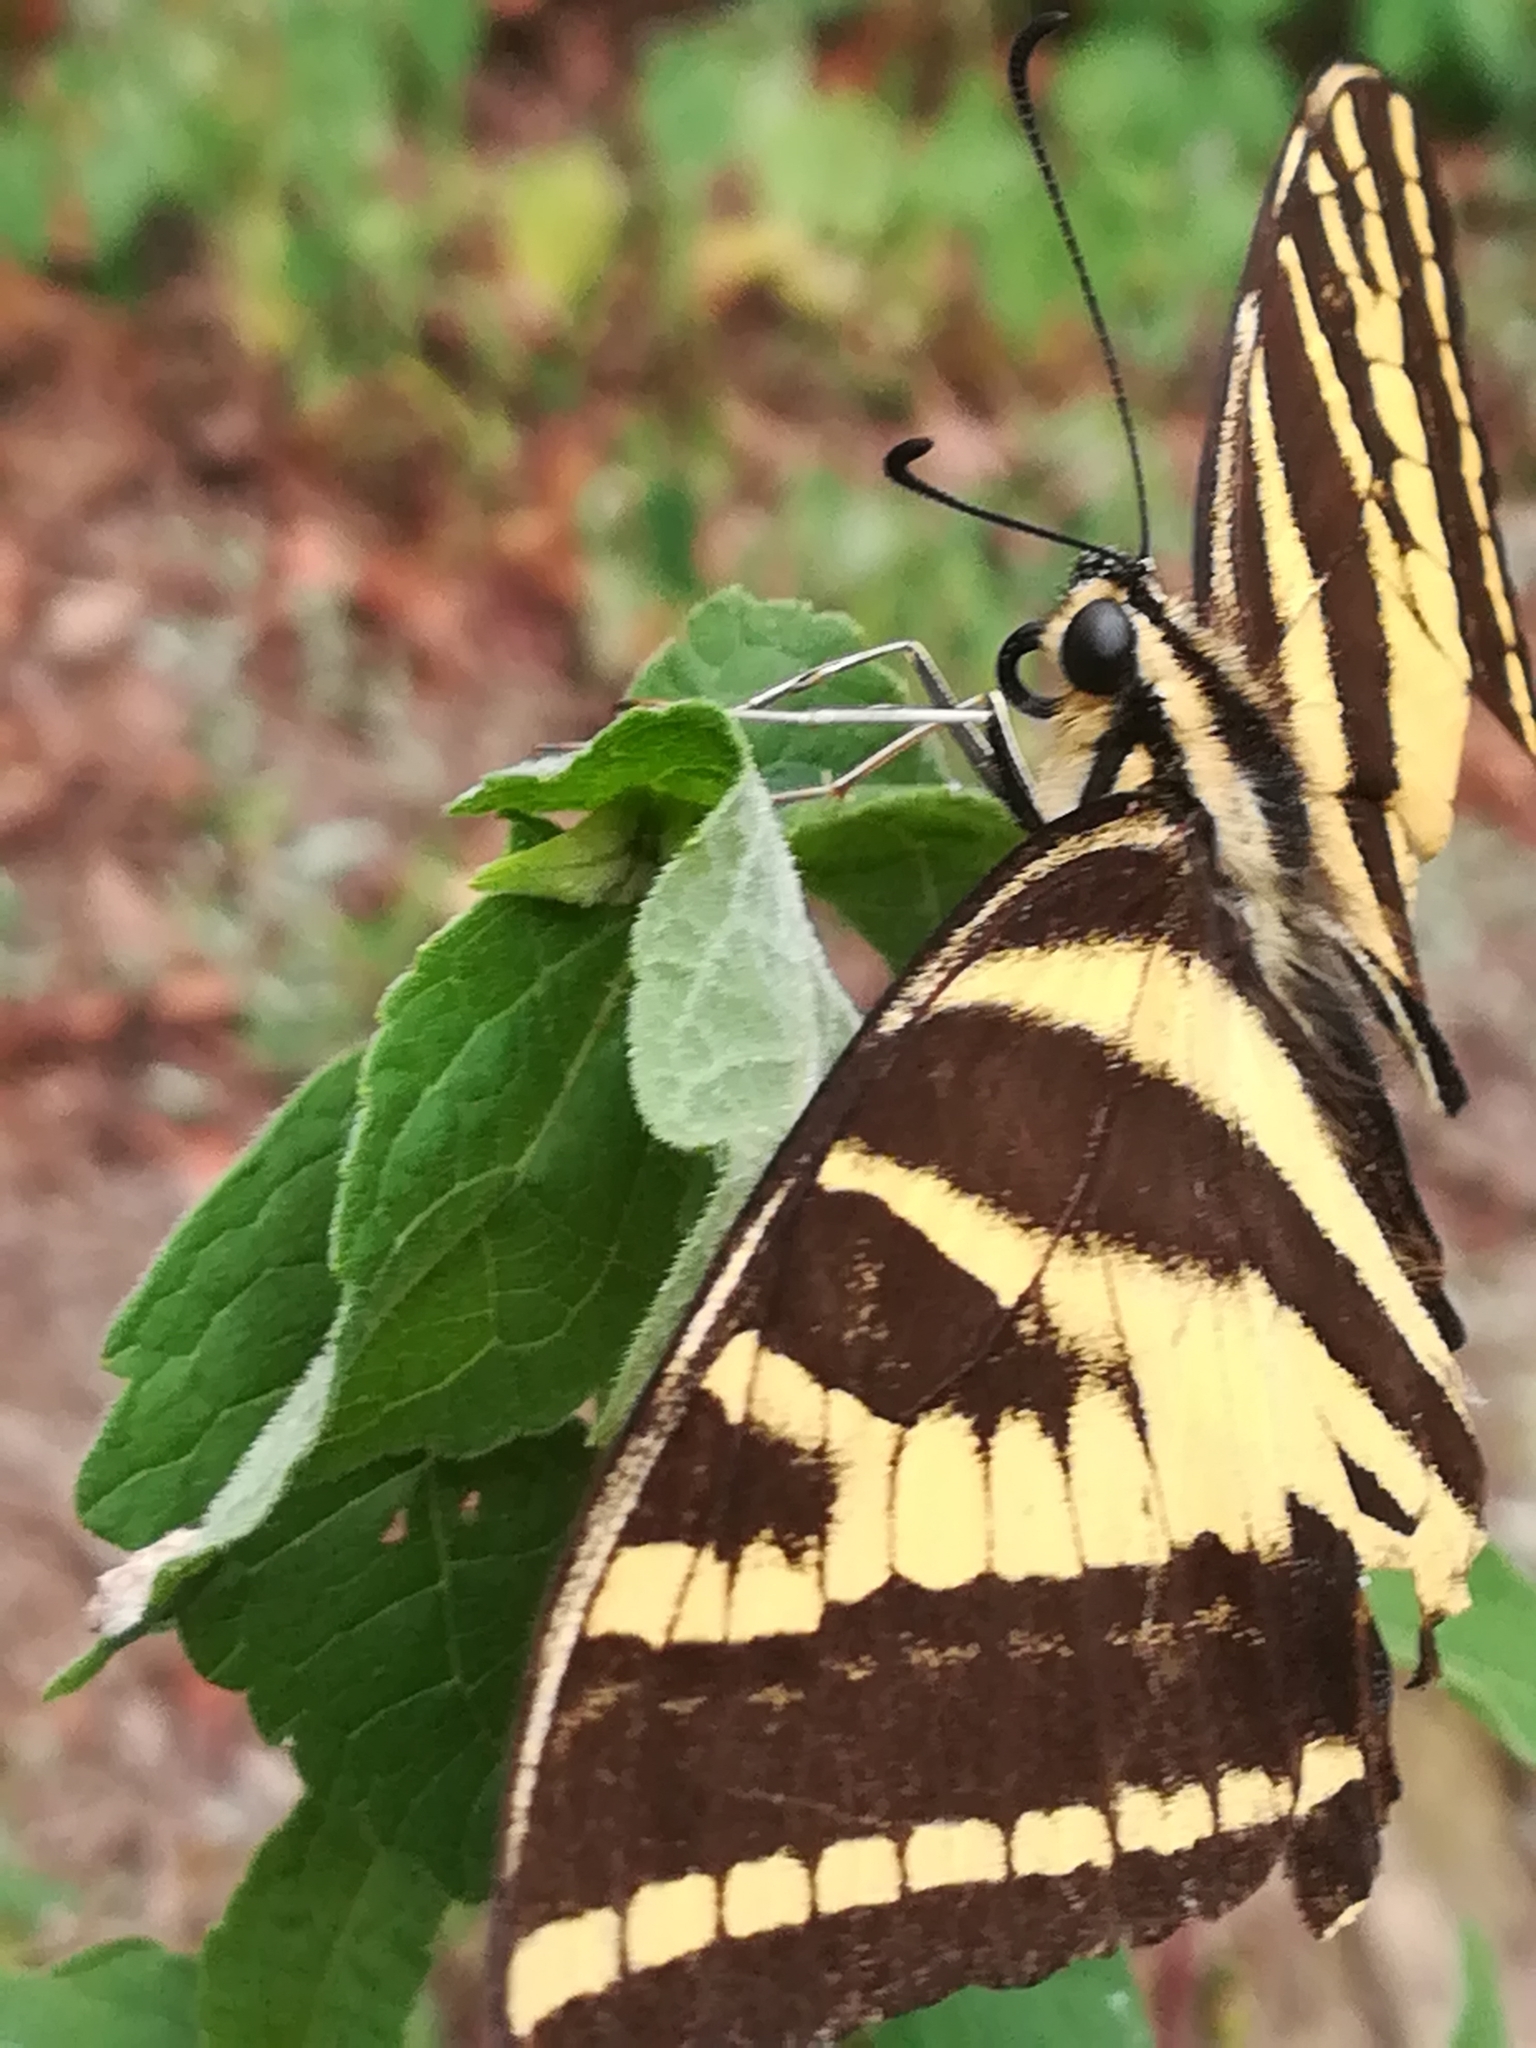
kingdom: Animalia
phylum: Arthropoda
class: Insecta
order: Lepidoptera
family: Papilionidae
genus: Papilio
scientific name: Papilio pilumnus
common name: Three-tailed tiger swallowtail
